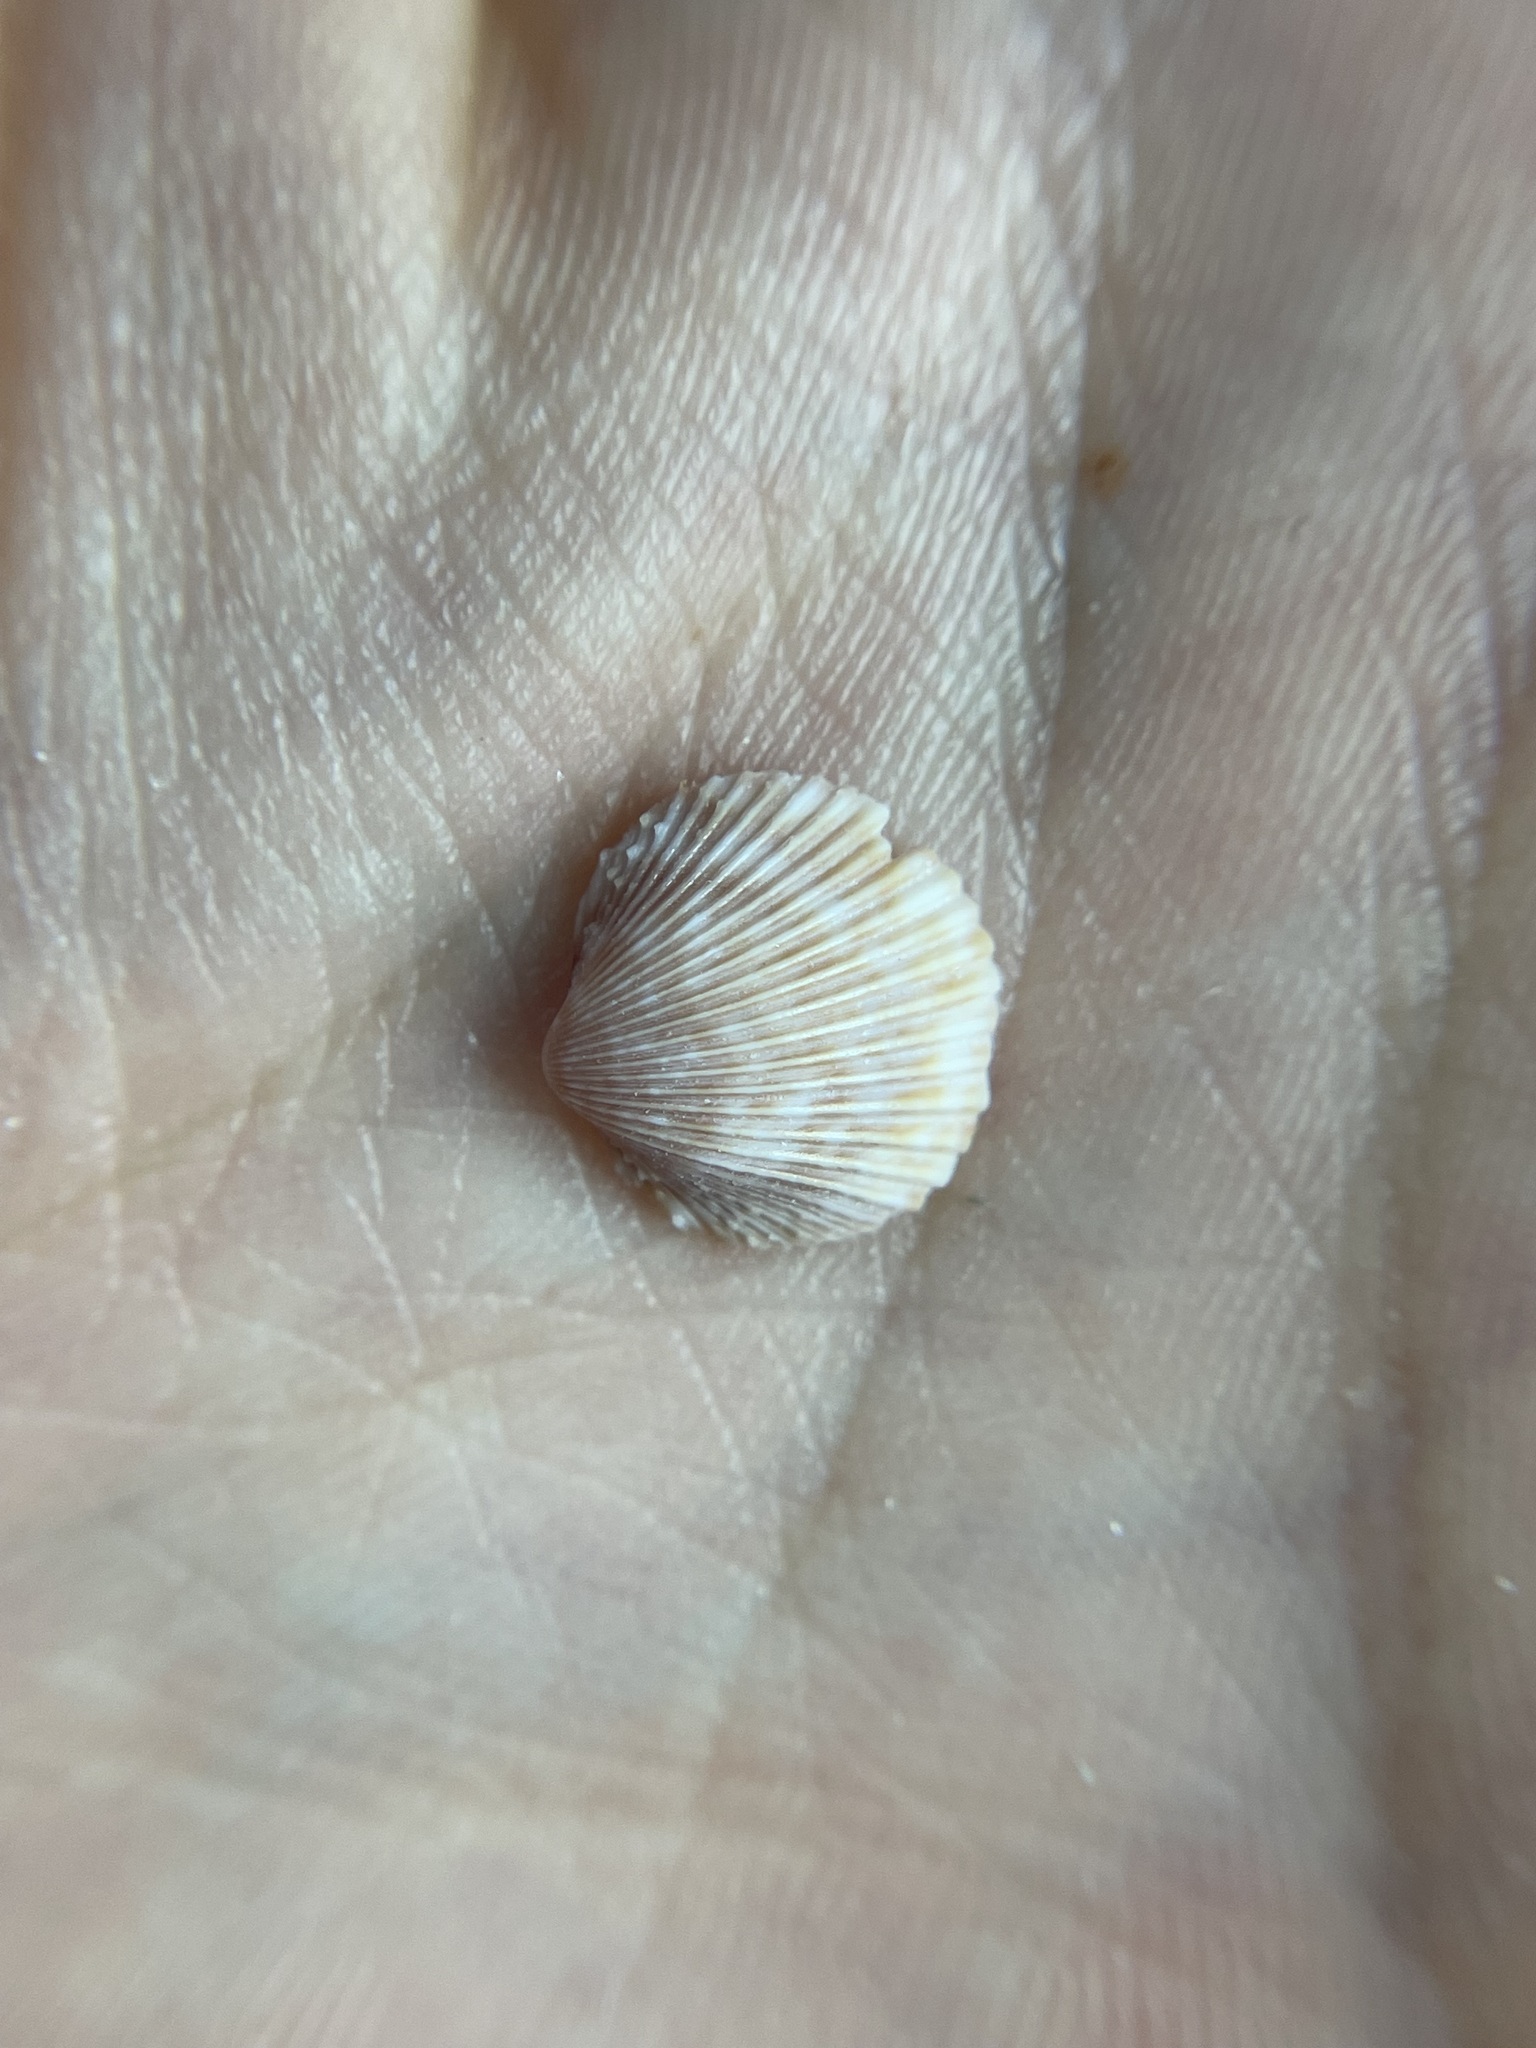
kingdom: Animalia
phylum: Mollusca
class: Bivalvia
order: Cardiida
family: Cardiidae
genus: Dinocardium
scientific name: Dinocardium robustum
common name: Atlantic giant cockle
